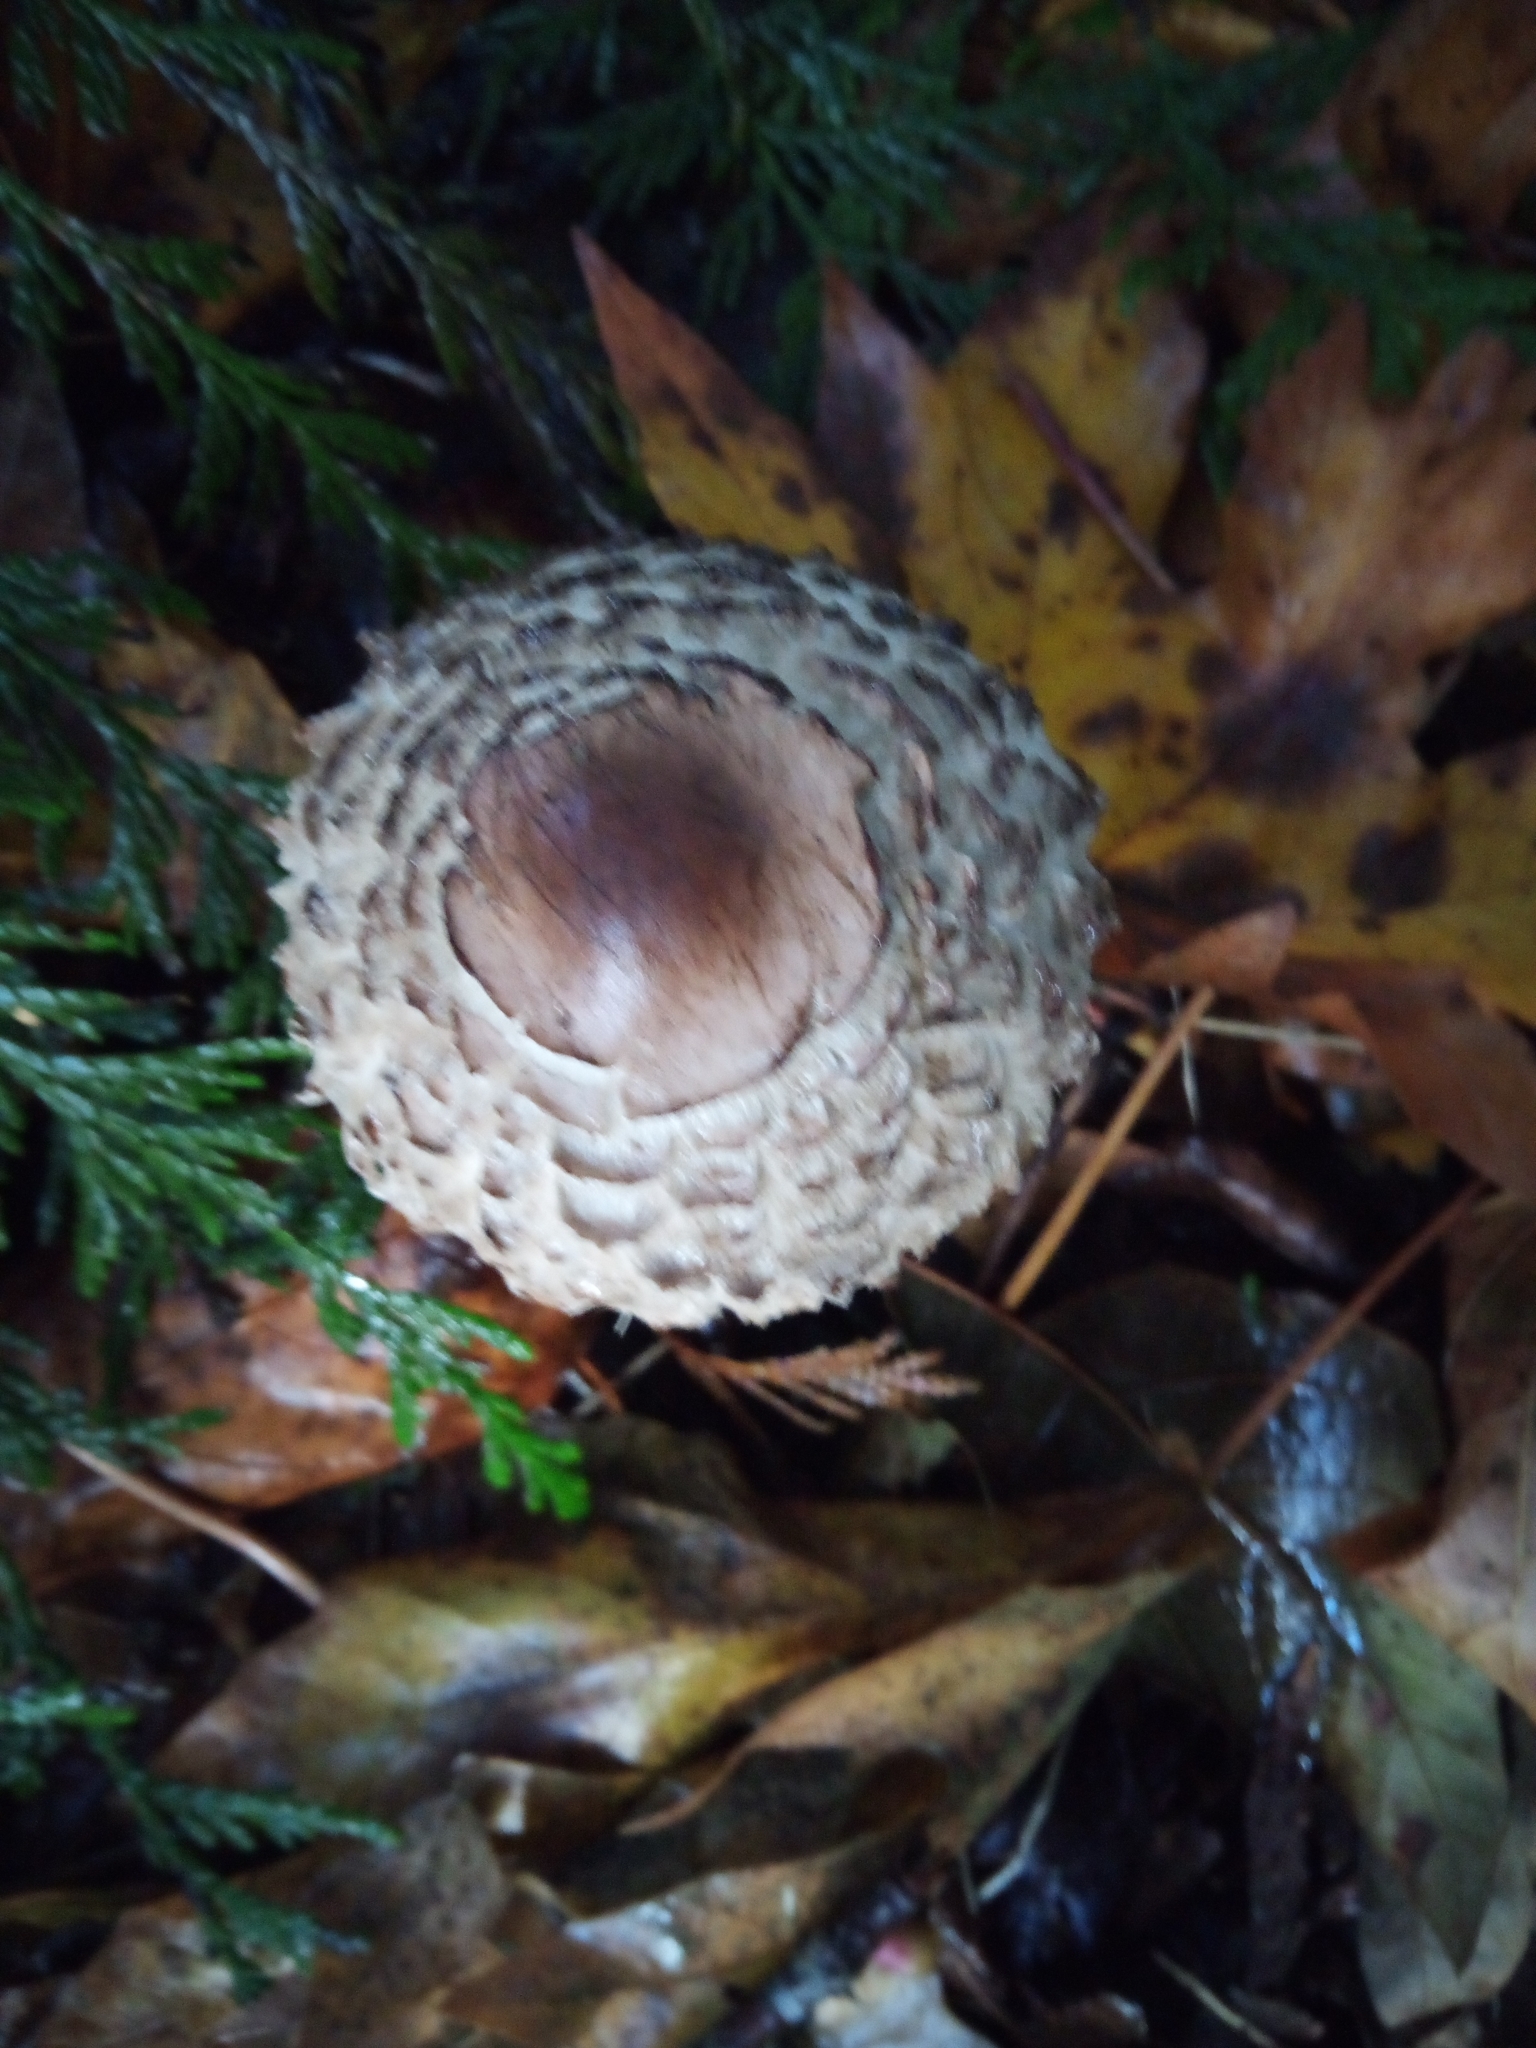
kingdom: Fungi
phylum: Basidiomycota
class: Agaricomycetes
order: Agaricales
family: Agaricaceae
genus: Chlorophyllum
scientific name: Chlorophyllum olivieri
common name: Conifer parasol
